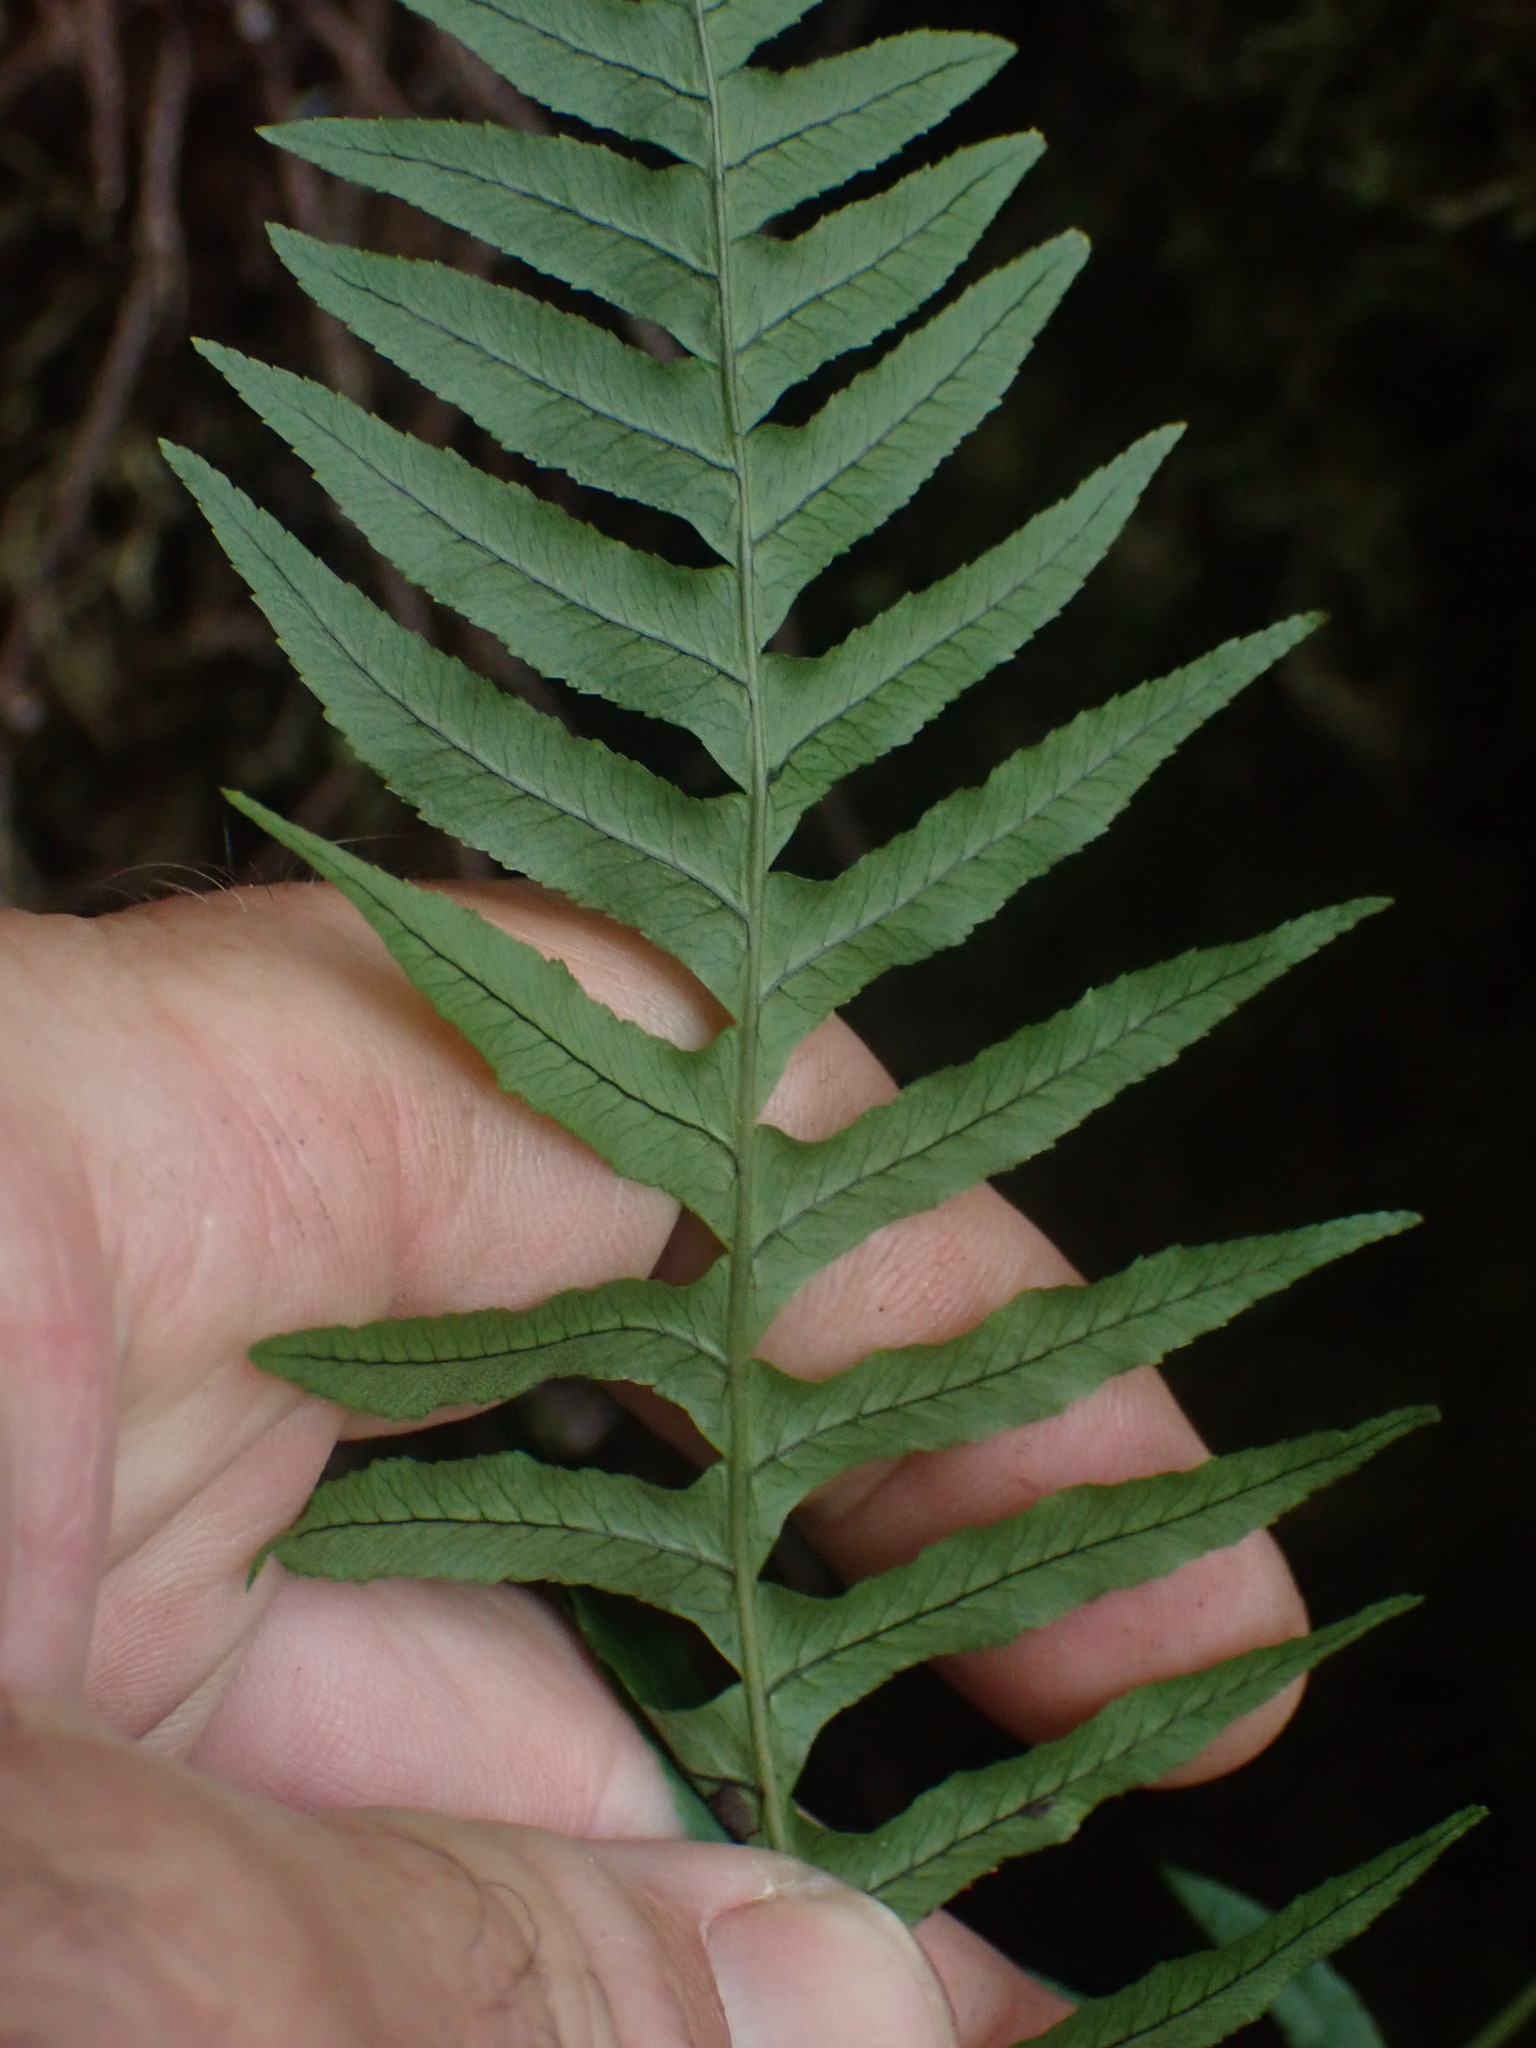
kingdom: Plantae
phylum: Tracheophyta
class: Polypodiopsida
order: Polypodiales
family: Polypodiaceae
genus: Polypodium
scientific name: Polypodium glycyrrhiza
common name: Licorice fern
